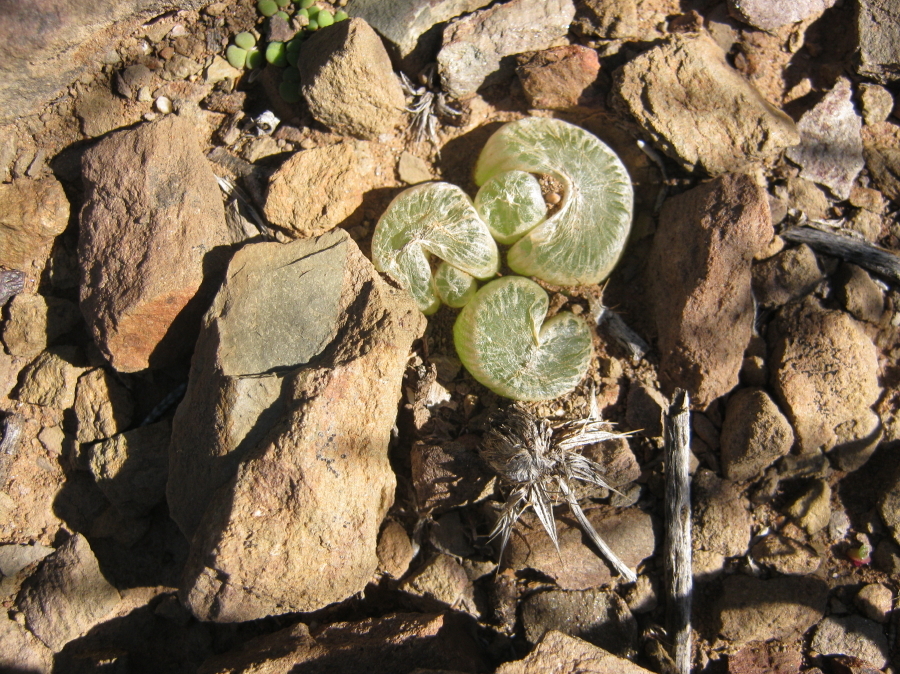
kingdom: Plantae
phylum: Tracheophyta
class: Liliopsida
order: Asparagales
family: Asphodelaceae
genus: Bulbine
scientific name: Bulbine mesembryanthoides
